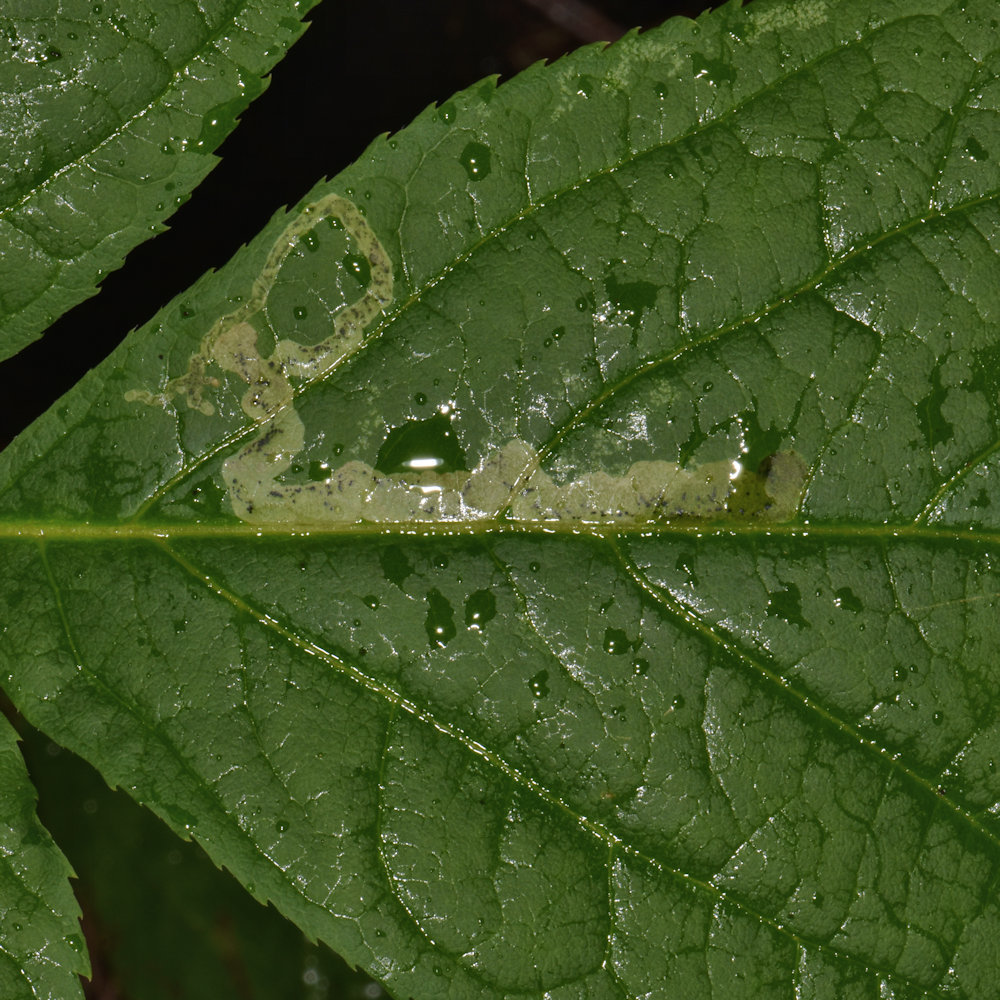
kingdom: Animalia
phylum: Arthropoda
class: Insecta
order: Diptera
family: Agromyzidae
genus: Phytomyza
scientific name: Phytomyza aralivora
